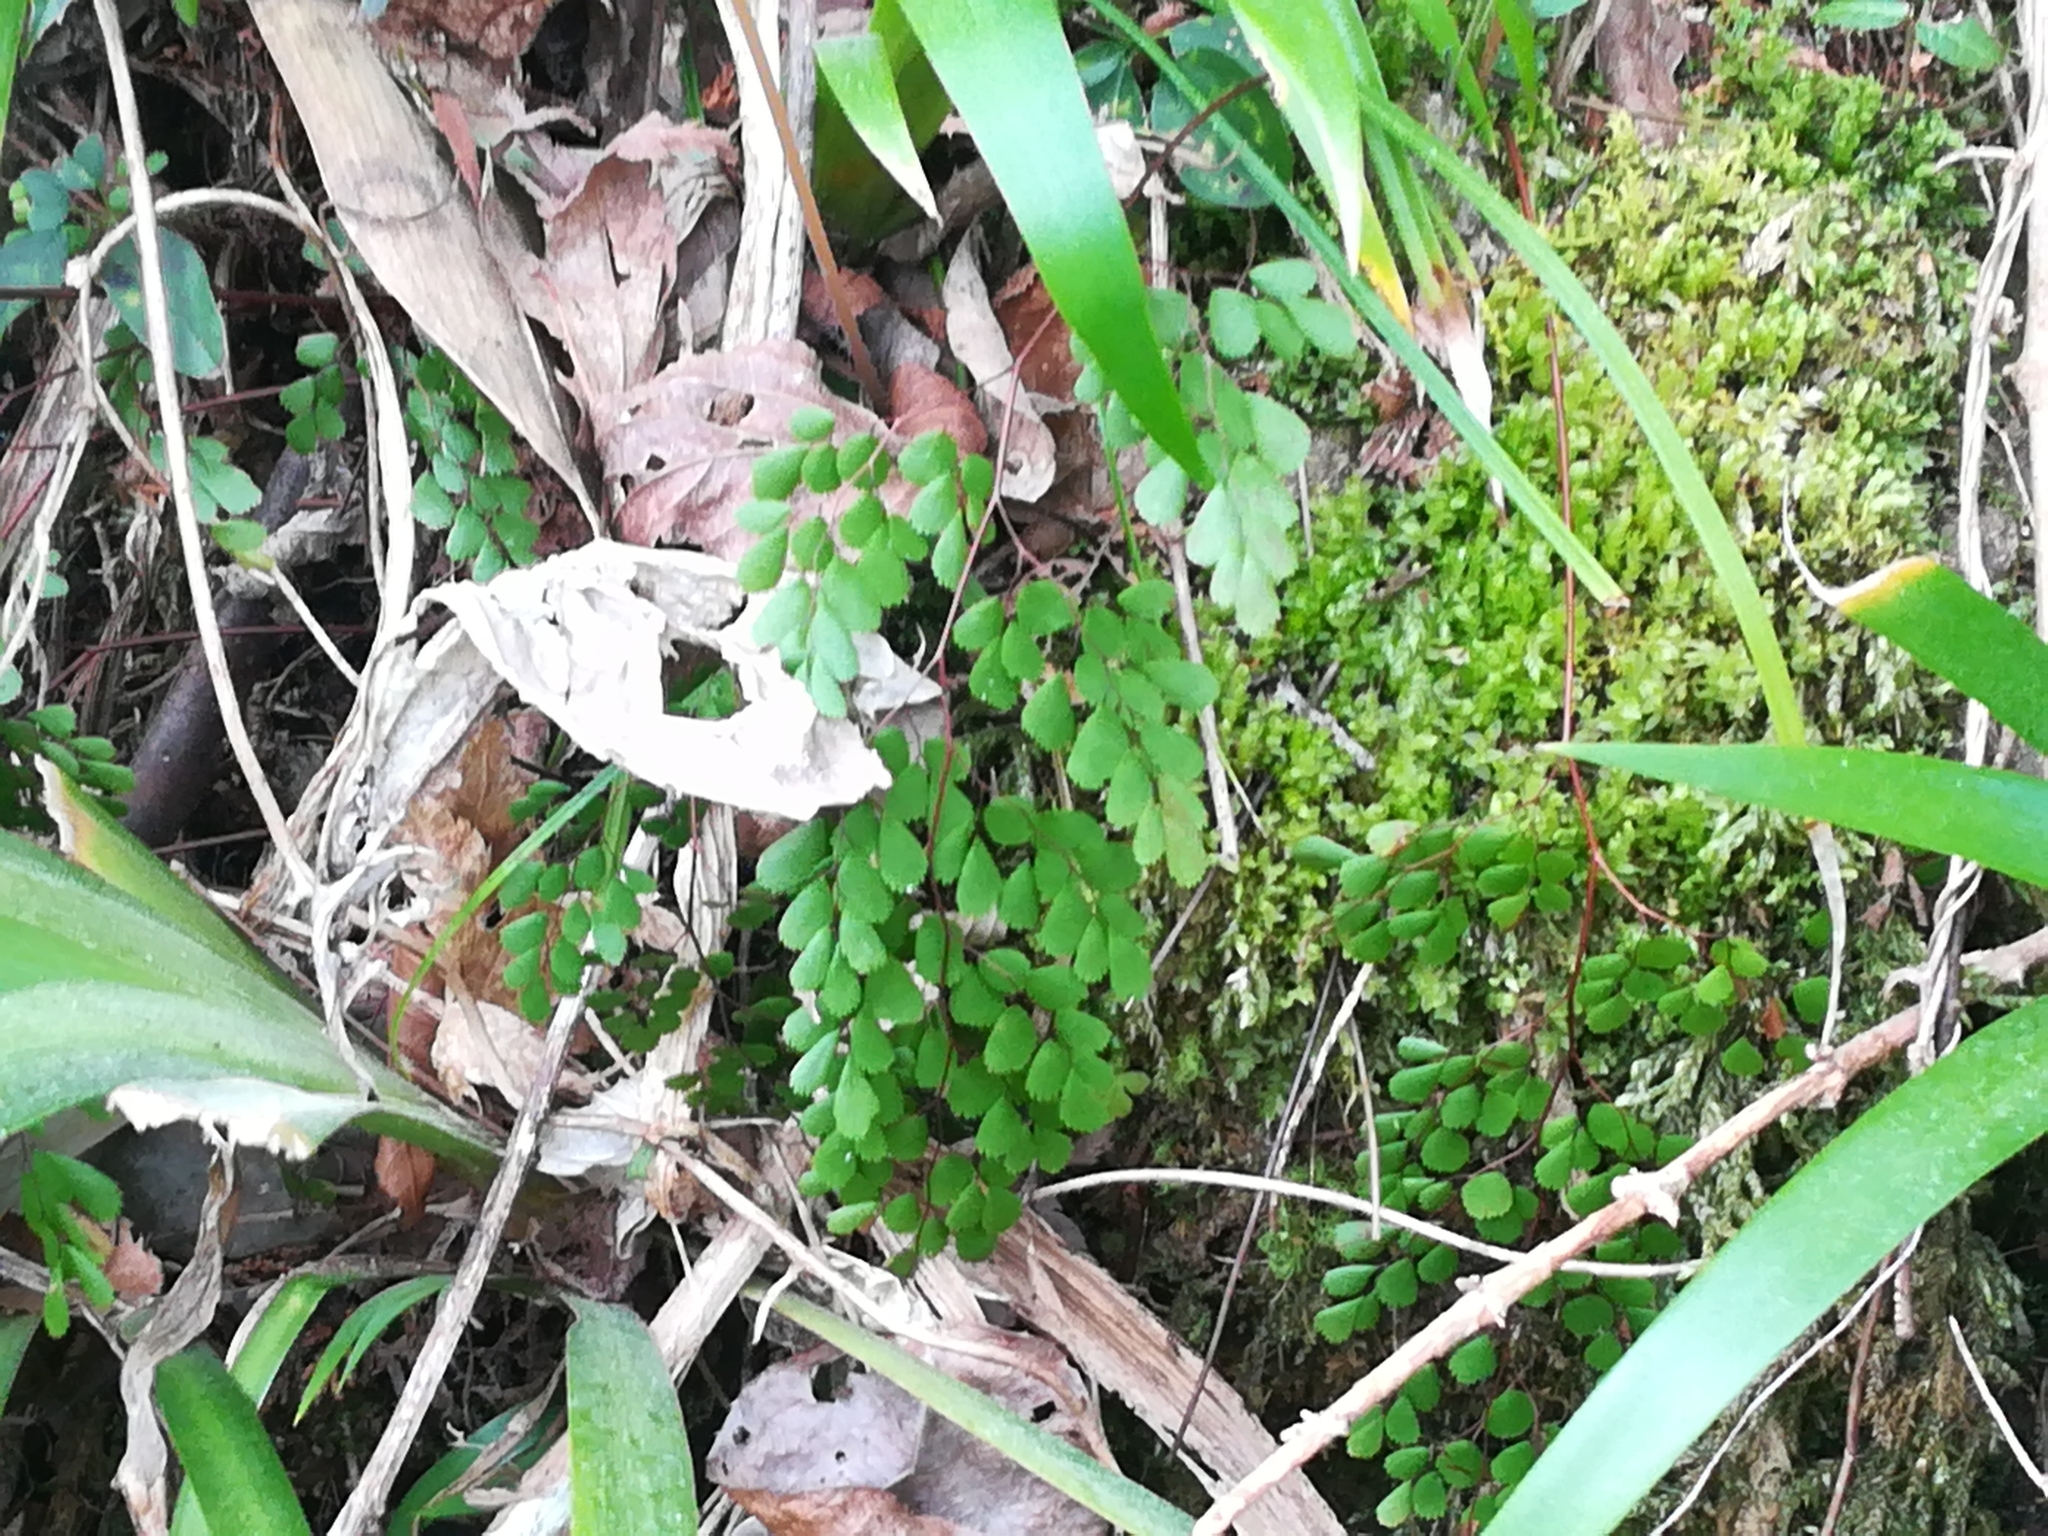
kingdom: Plantae
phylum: Tracheophyta
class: Polypodiopsida
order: Polypodiales
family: Pteridaceae
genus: Adiantum
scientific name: Adiantum monochlamys
